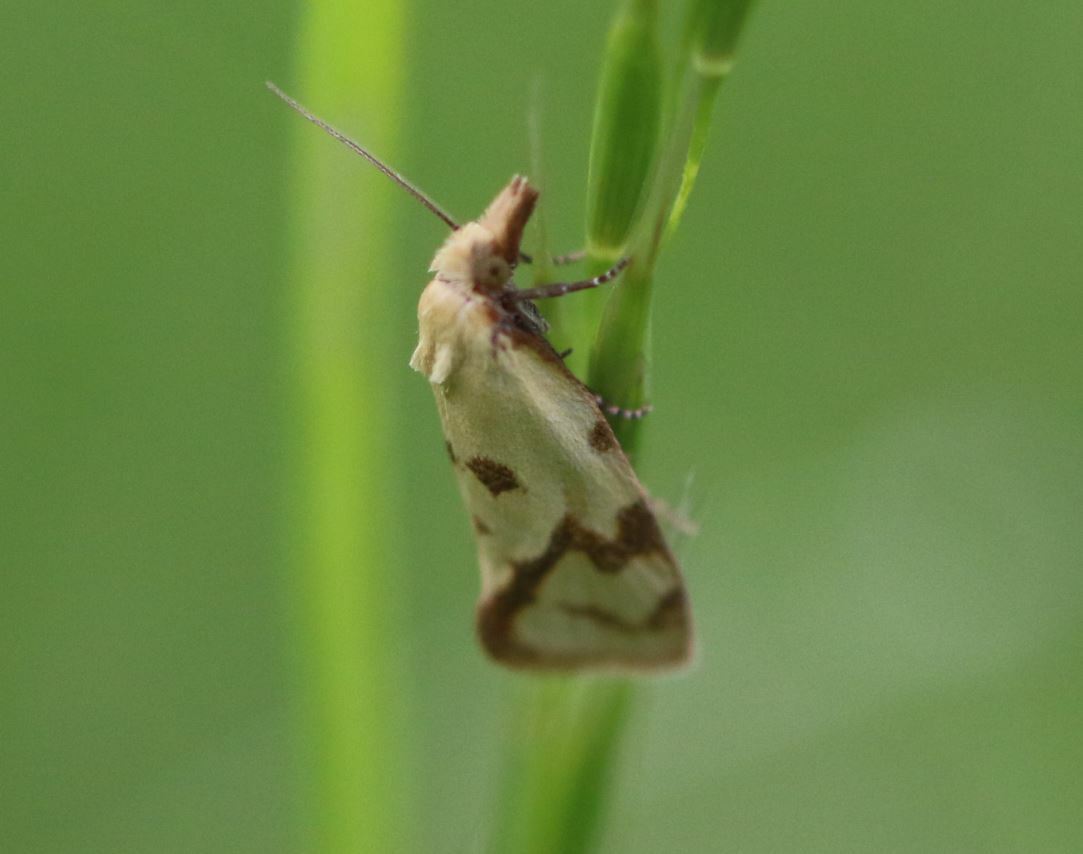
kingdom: Animalia
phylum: Arthropoda
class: Insecta
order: Lepidoptera
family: Tortricidae
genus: Agapeta
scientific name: Agapeta hamana
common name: Common yellow conch
